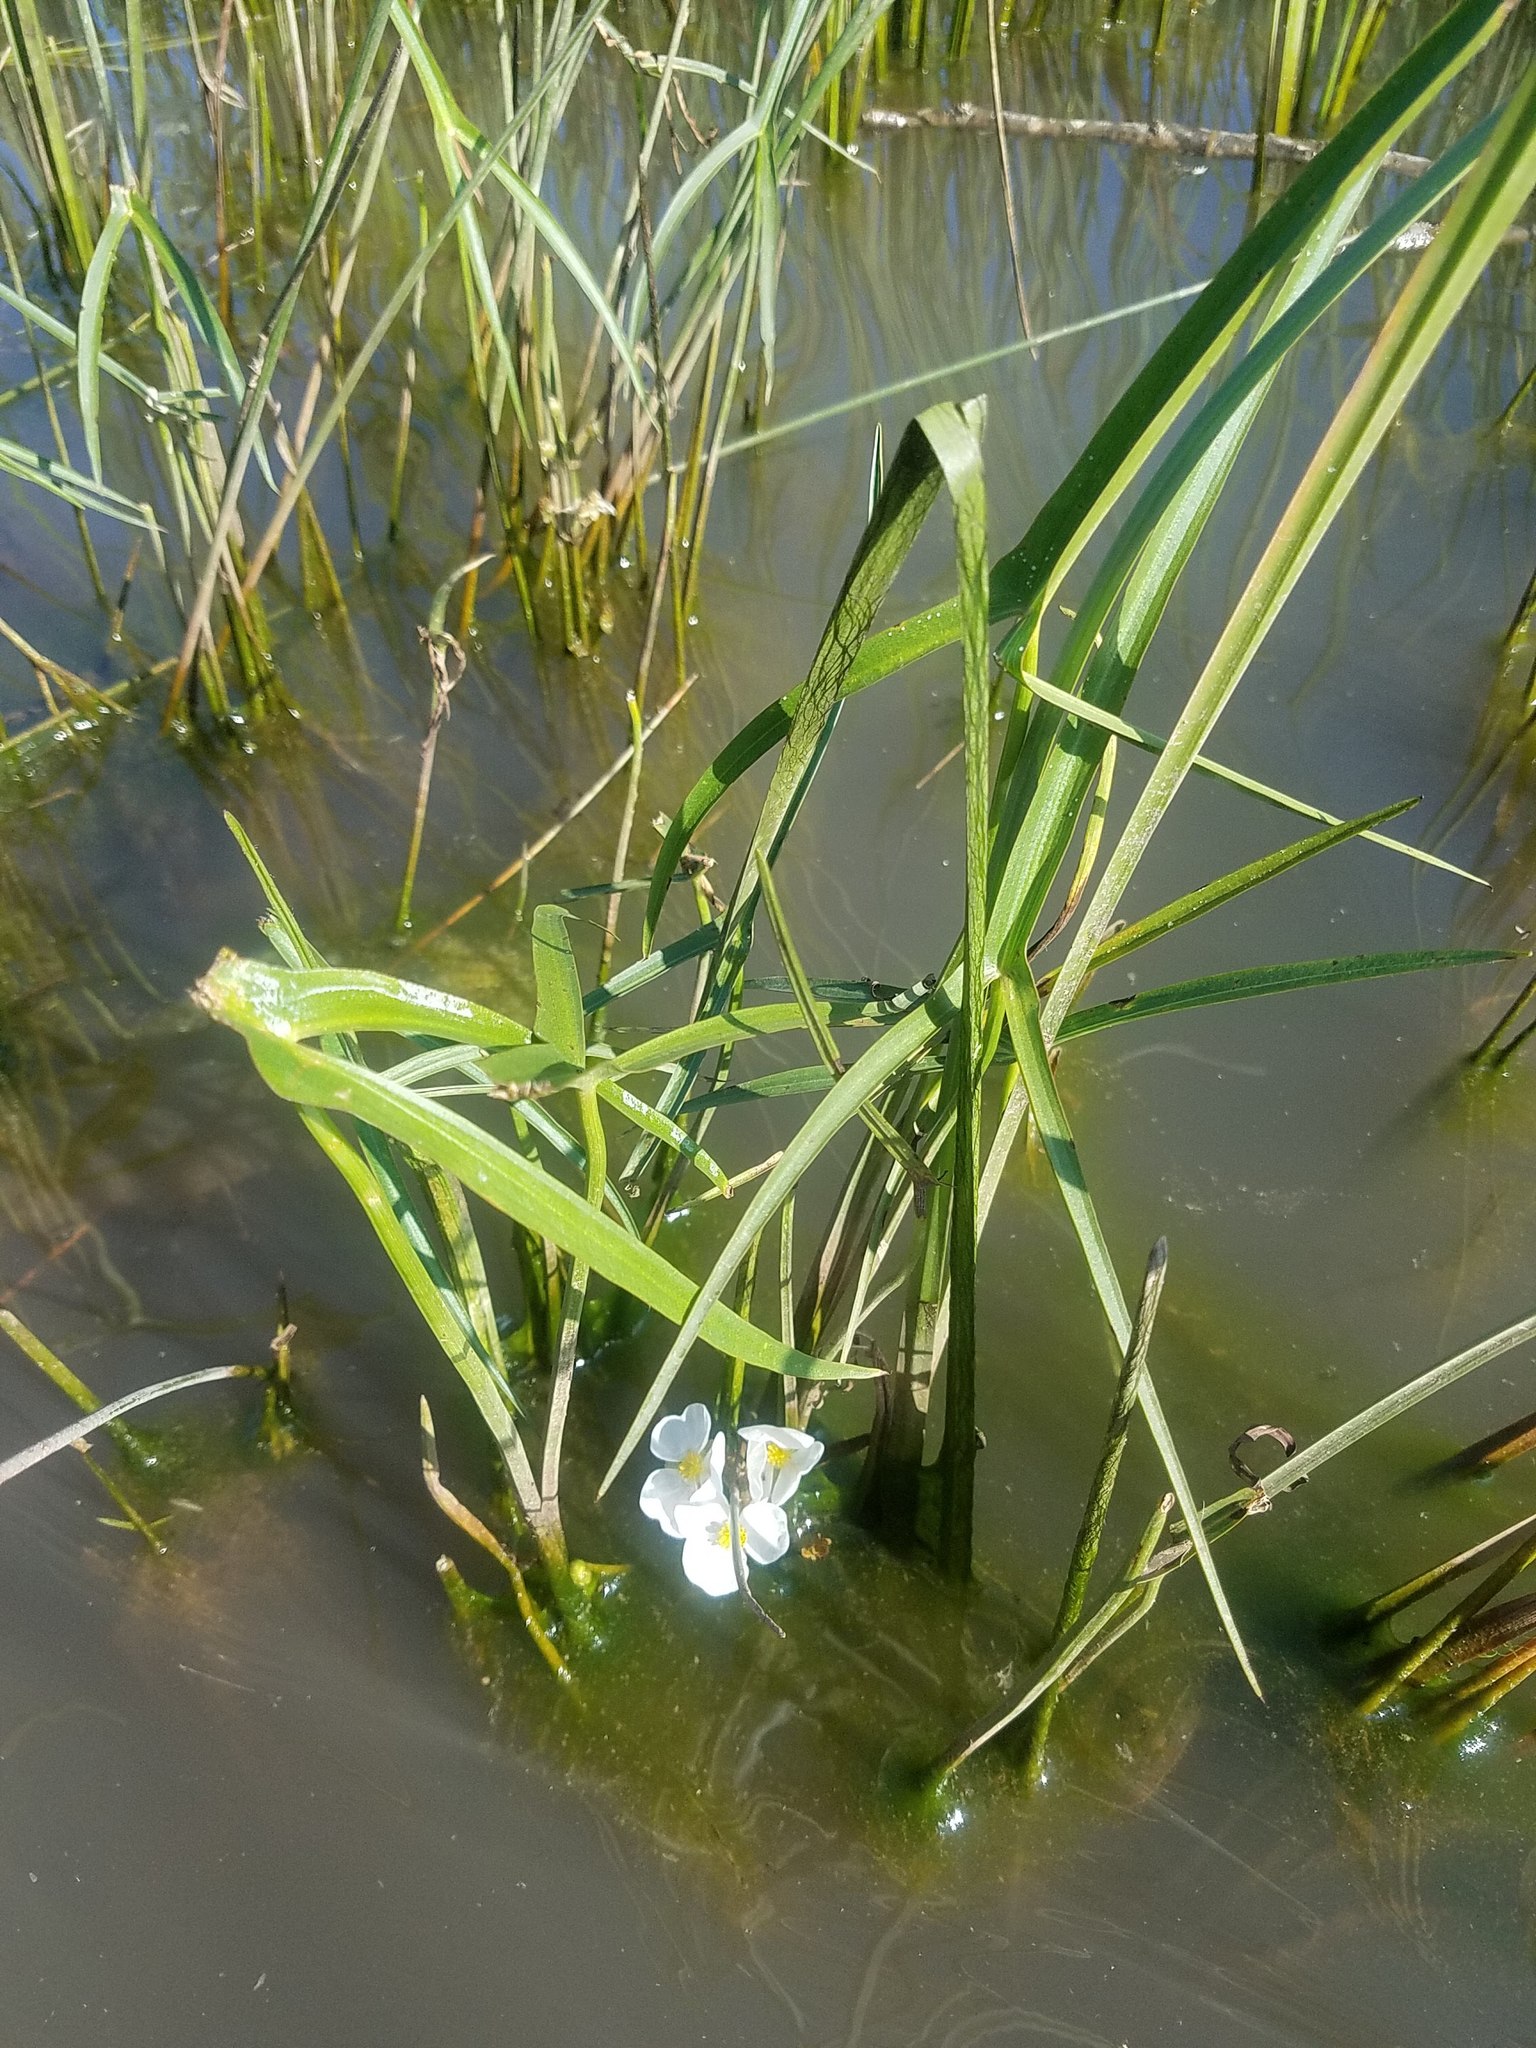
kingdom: Plantae
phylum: Tracheophyta
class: Liliopsida
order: Alismatales
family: Alismataceae
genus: Sagittaria
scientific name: Sagittaria latifolia
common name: Duck-potato
